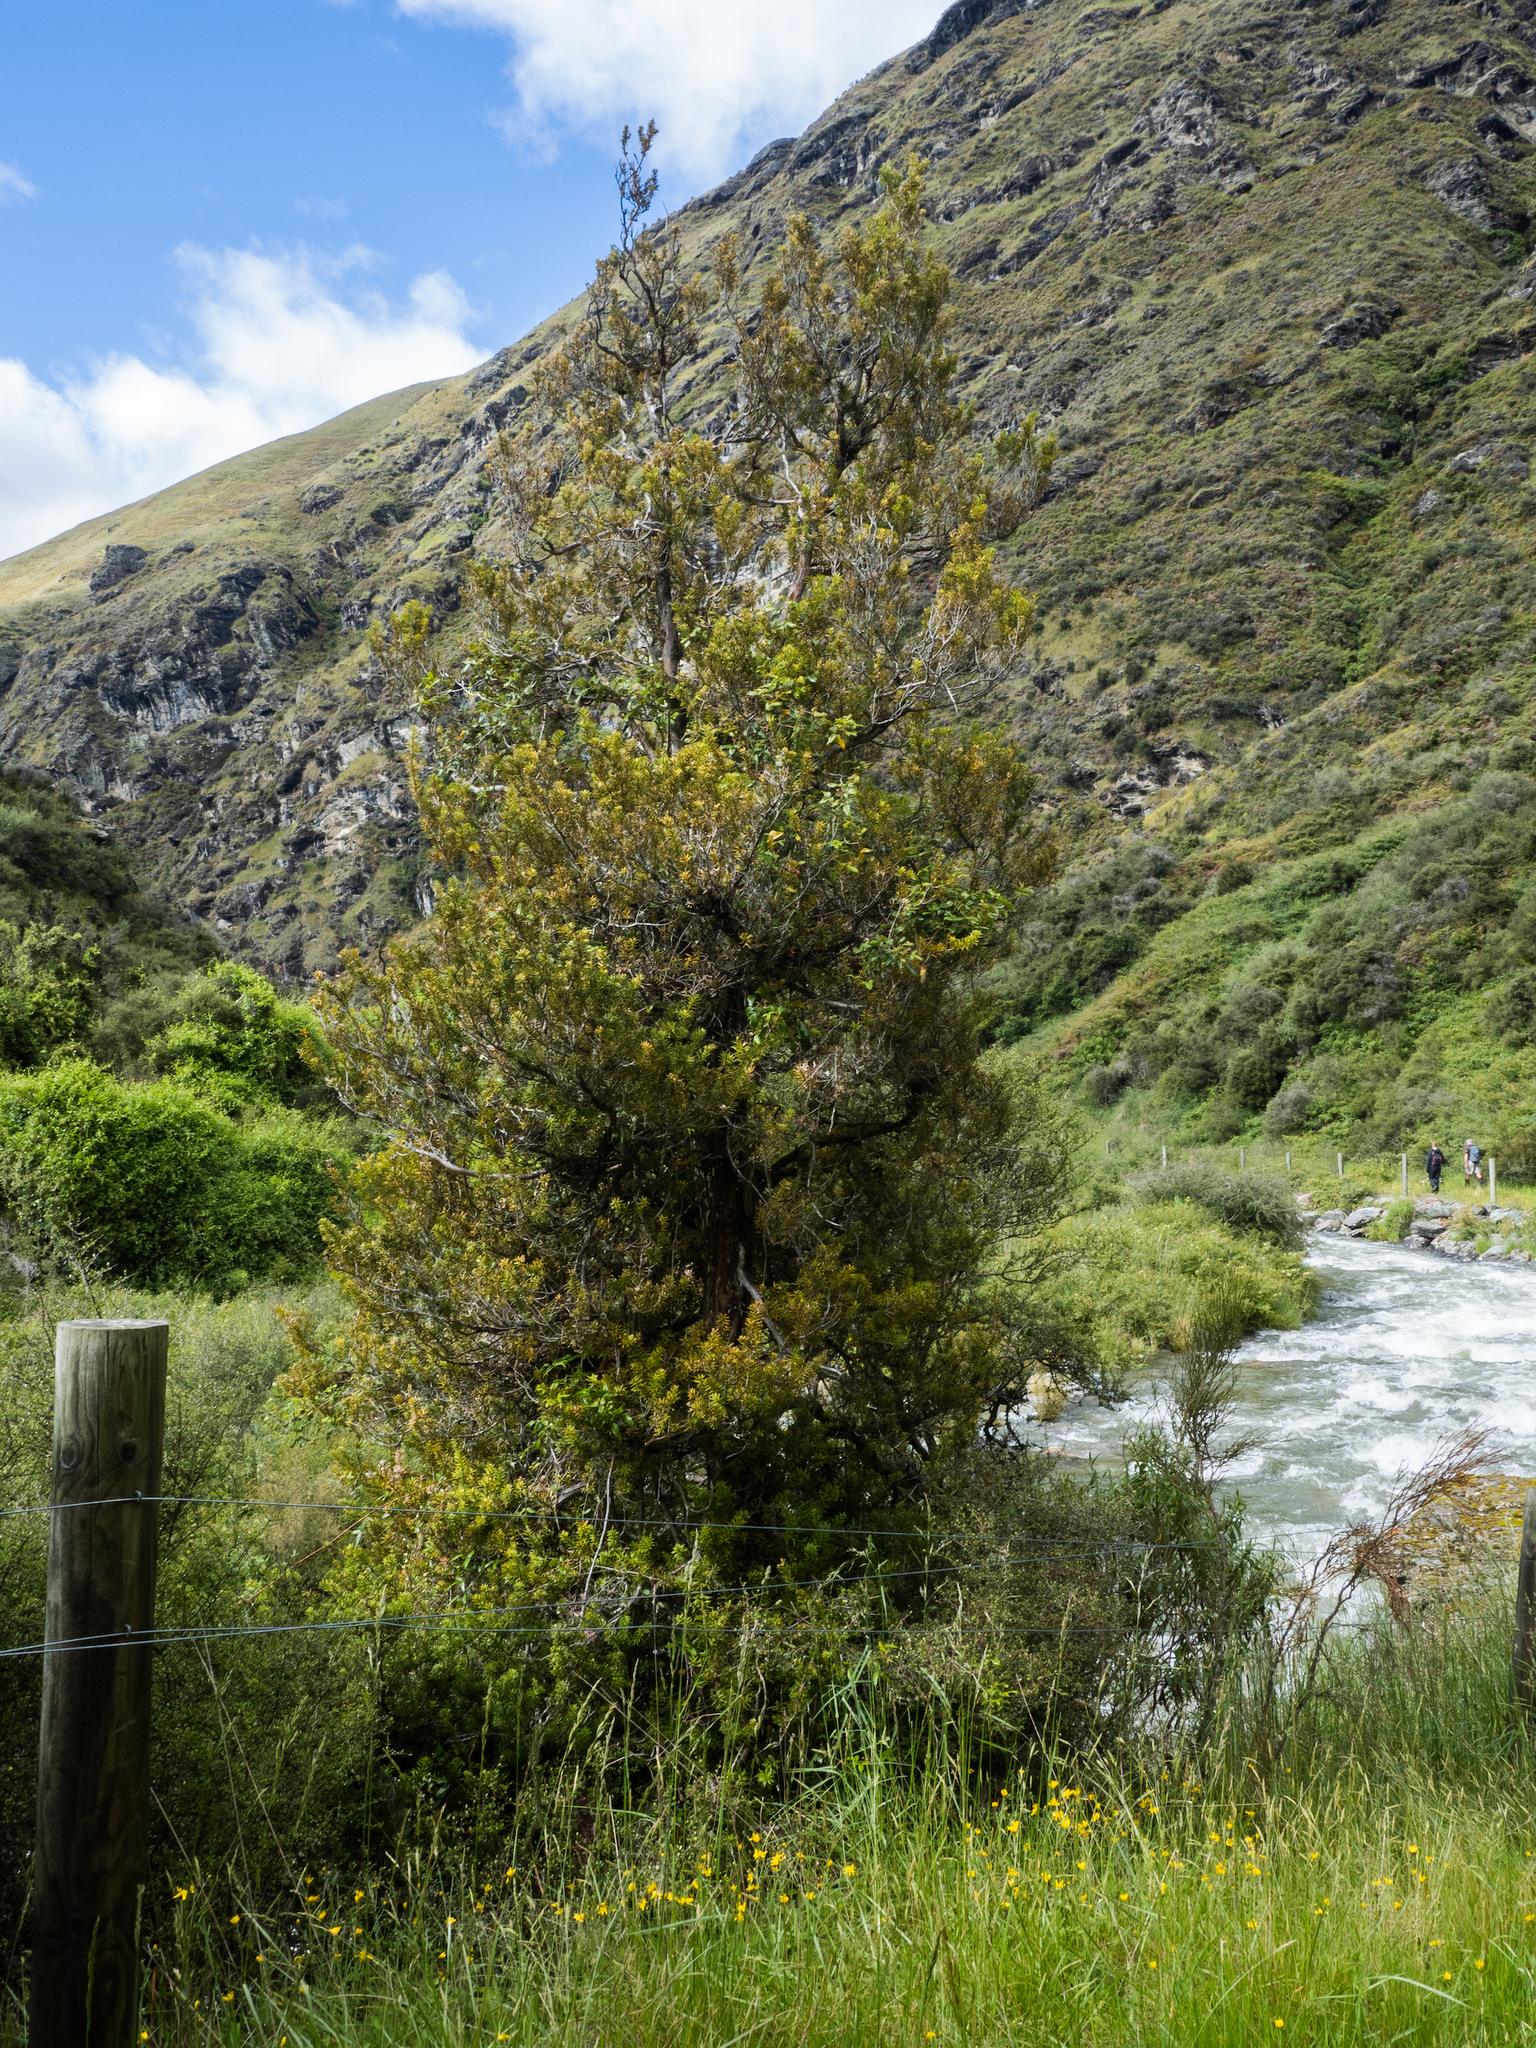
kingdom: Plantae
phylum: Tracheophyta
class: Pinopsida
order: Pinales
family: Podocarpaceae
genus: Podocarpus
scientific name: Podocarpus laetus
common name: Hall's totara
